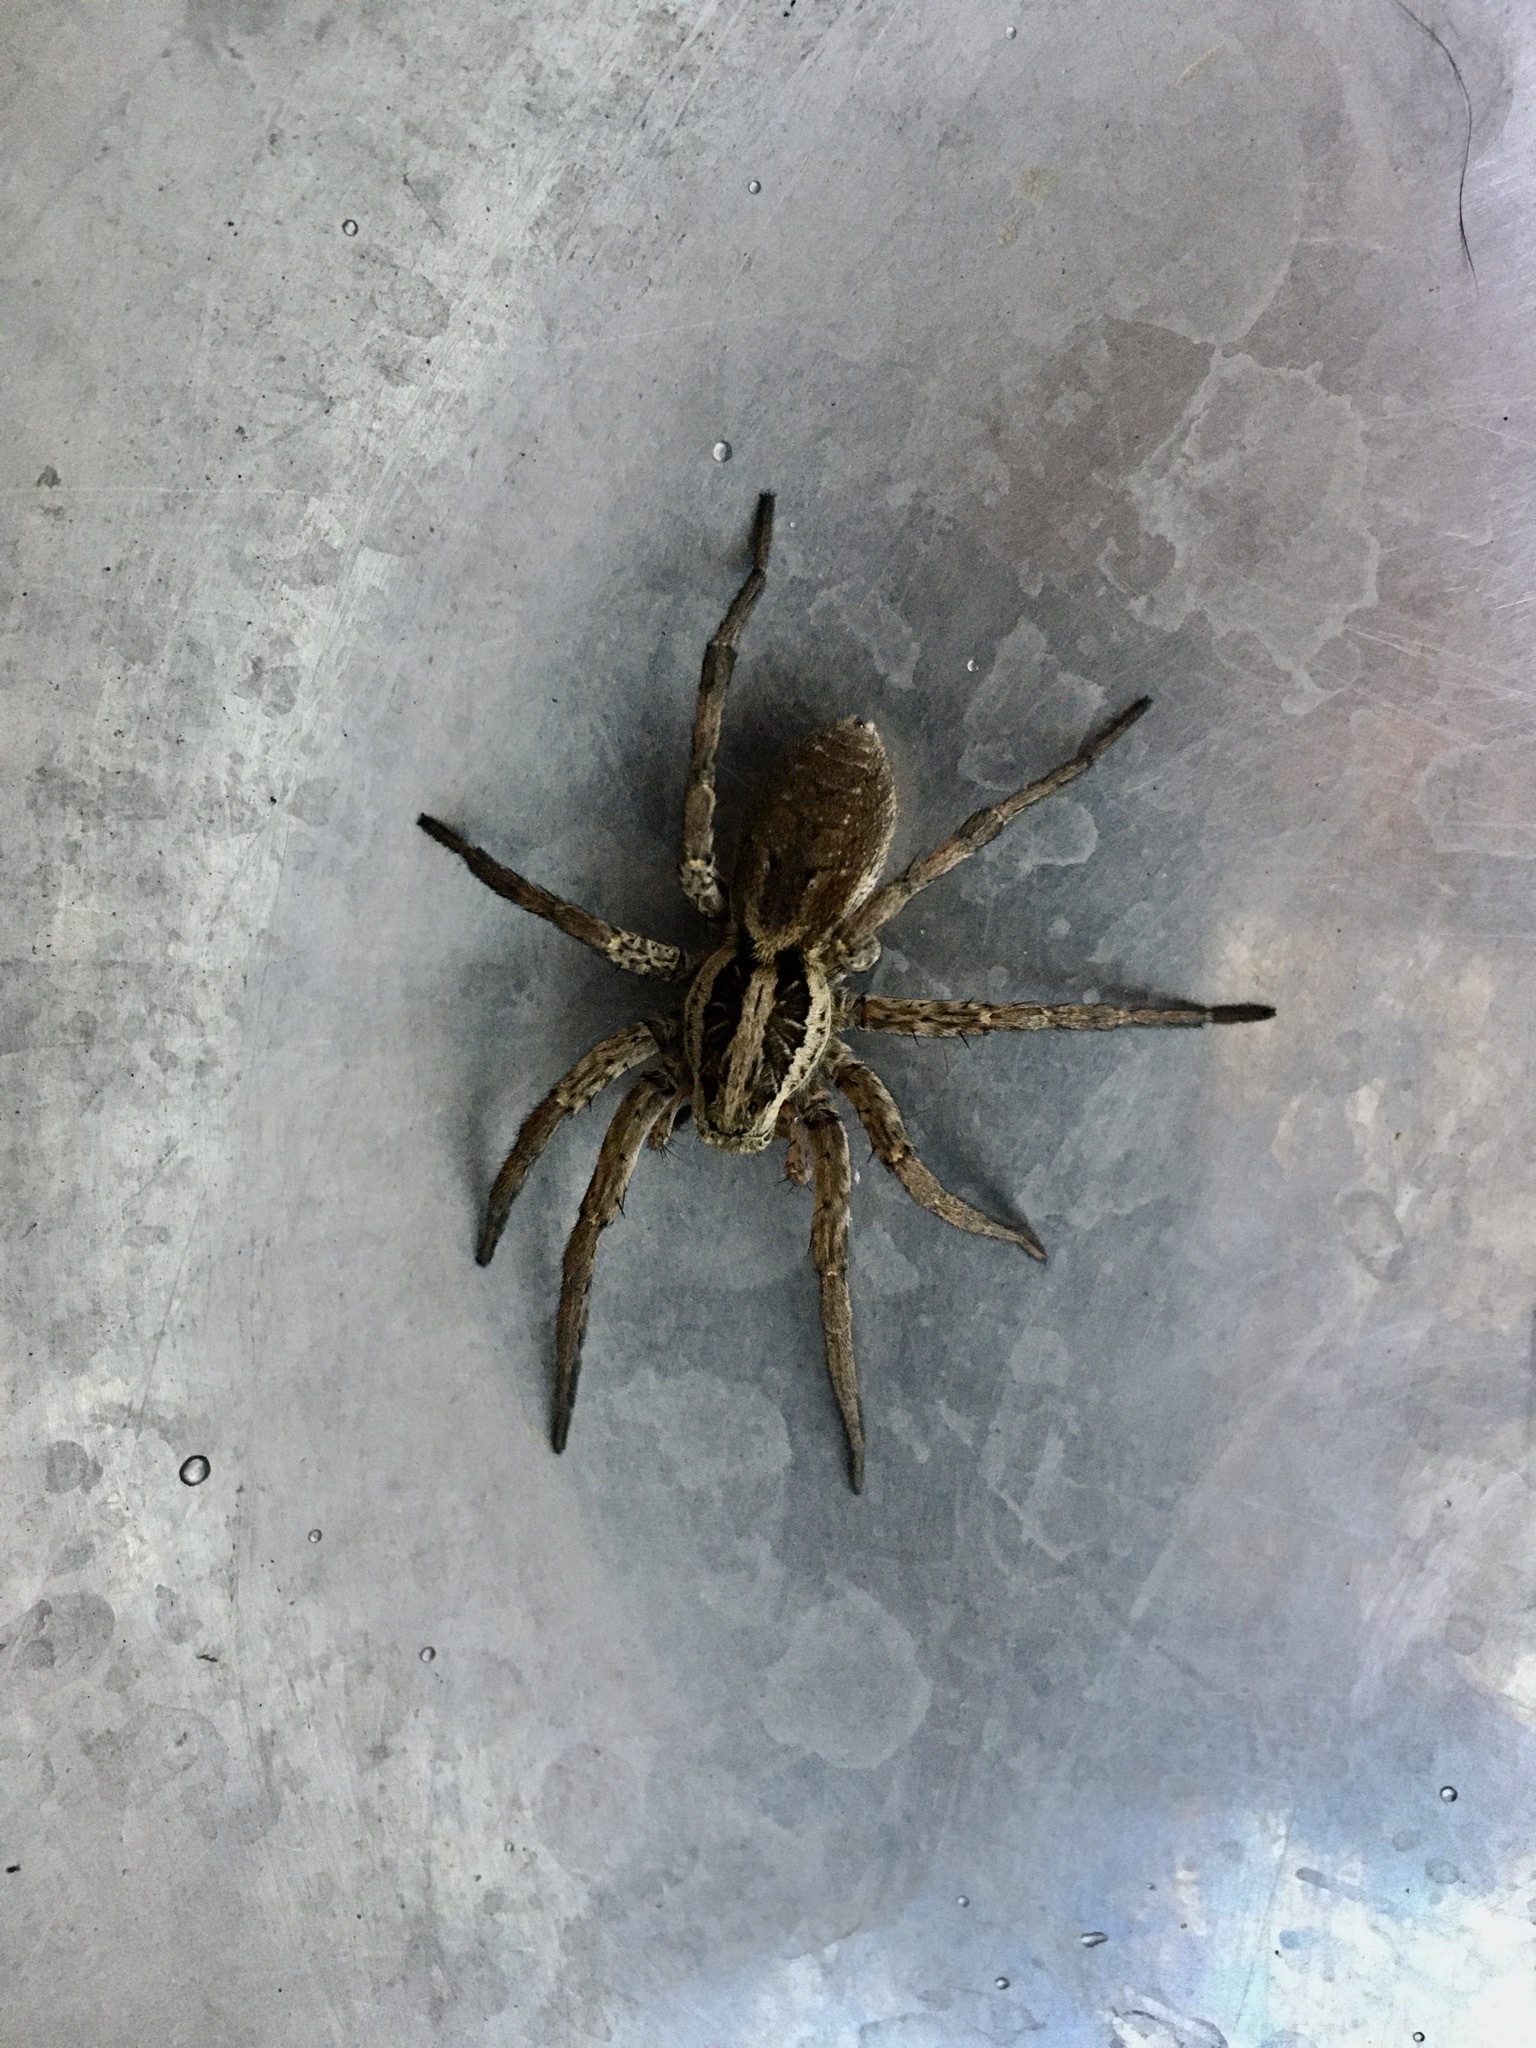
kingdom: Animalia
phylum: Arthropoda
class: Arachnida
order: Araneae
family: Lycosidae
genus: Hogna
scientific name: Hogna radiata
